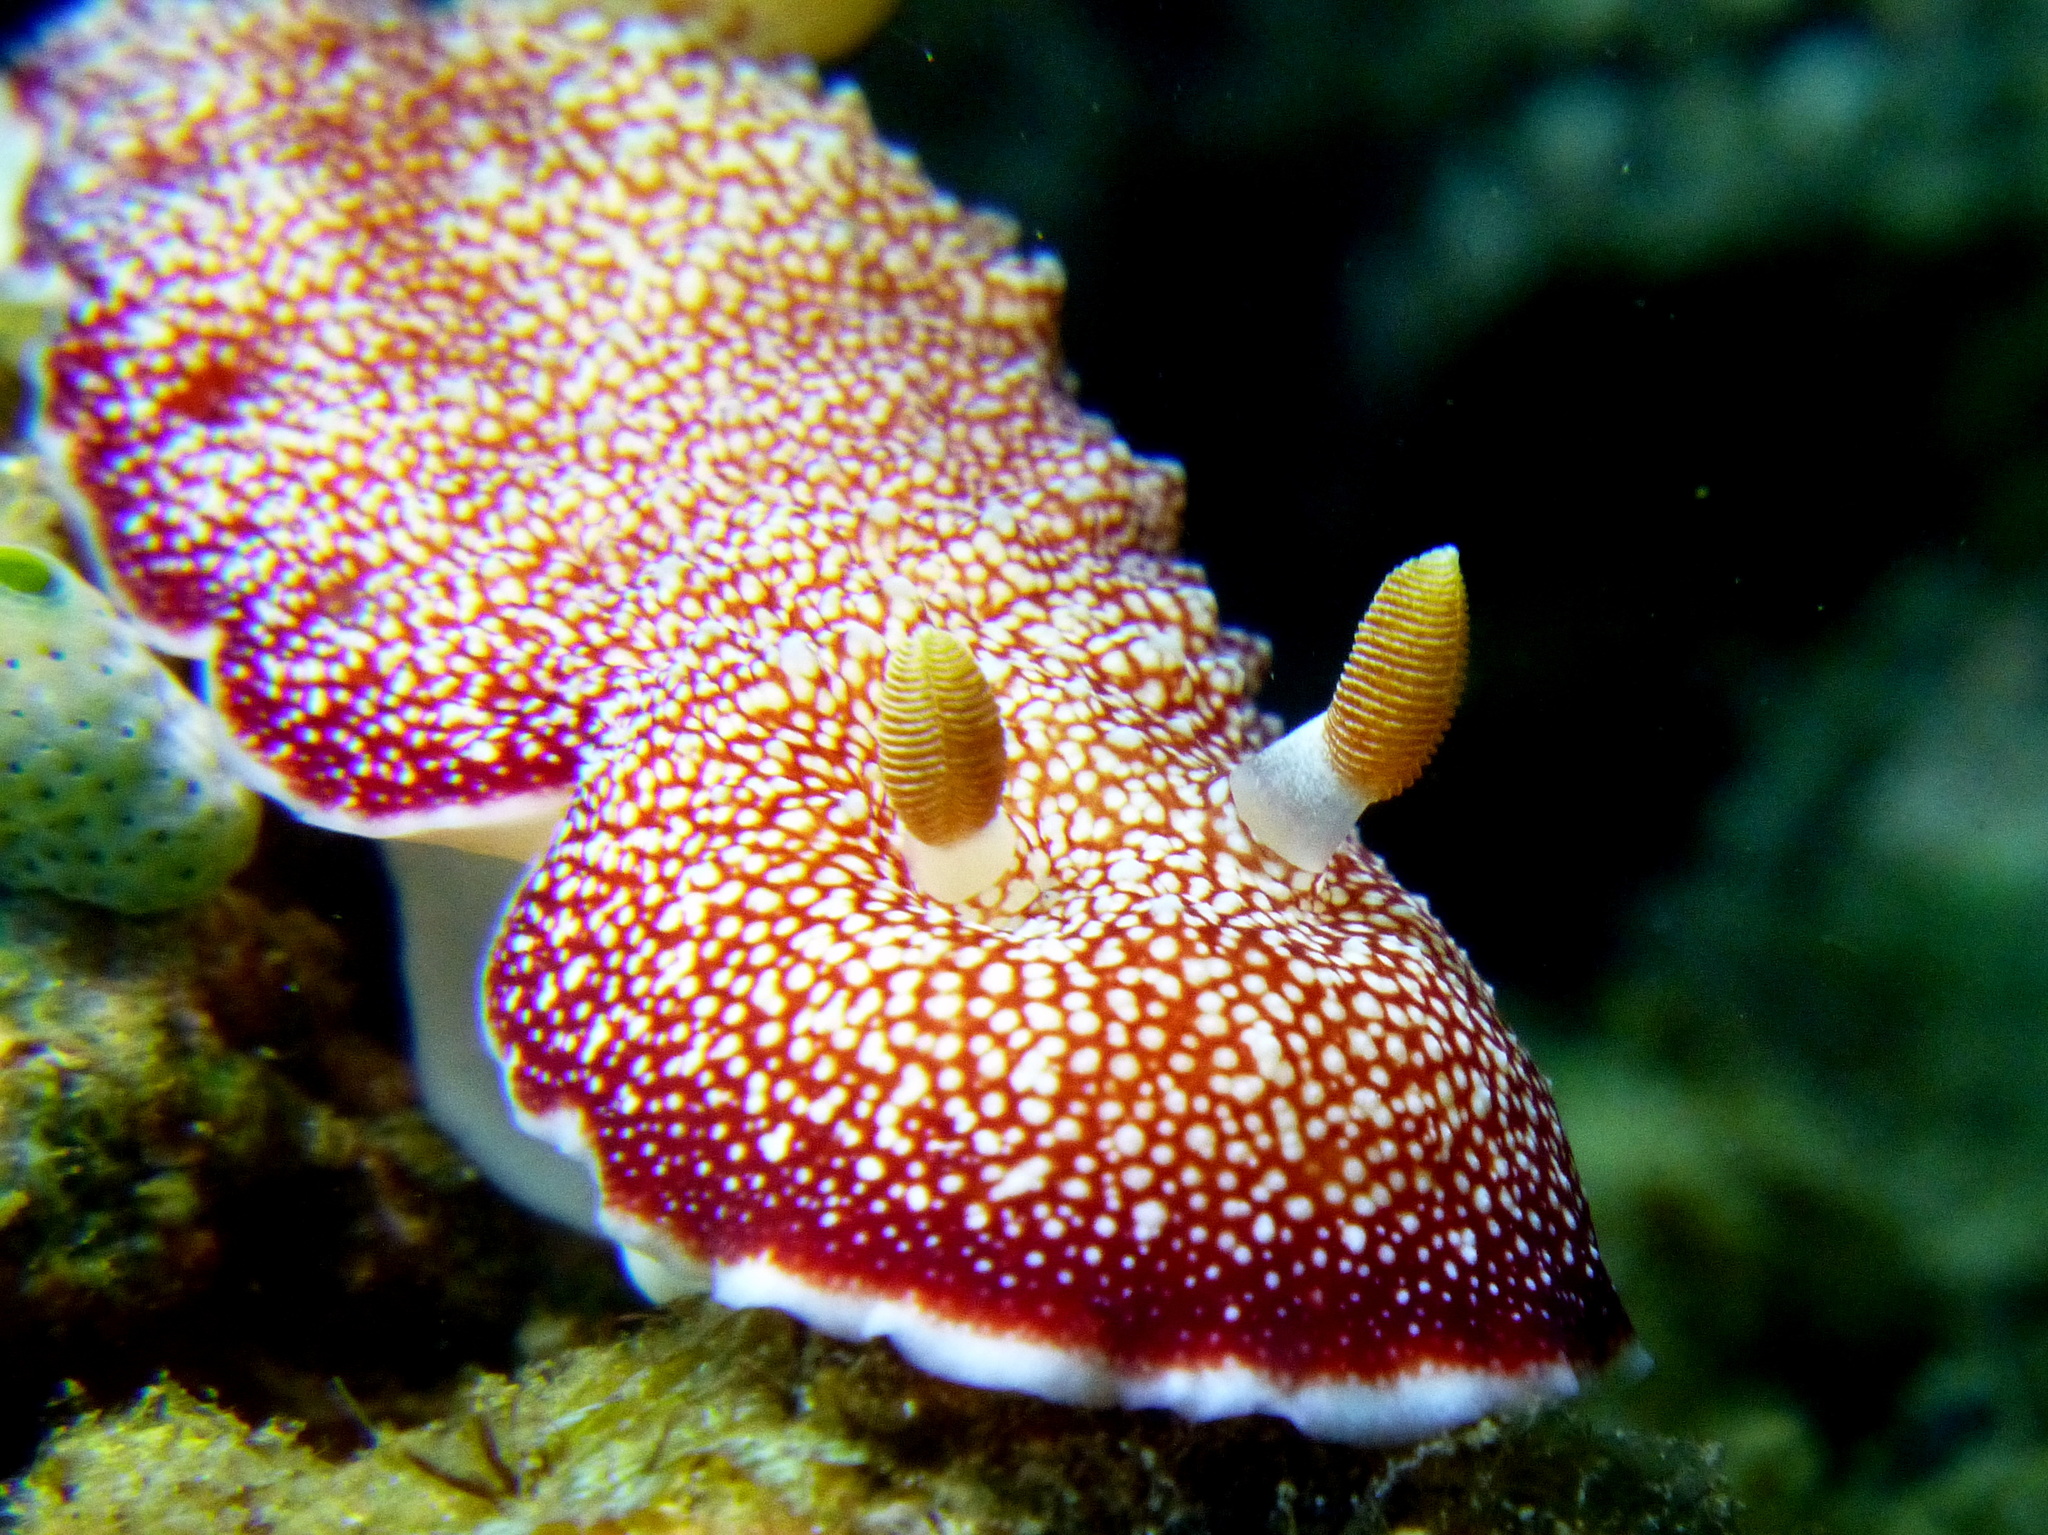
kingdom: Animalia
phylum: Mollusca
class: Gastropoda
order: Nudibranchia
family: Chromodorididae
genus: Goniobranchus
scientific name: Goniobranchus reticulatus
